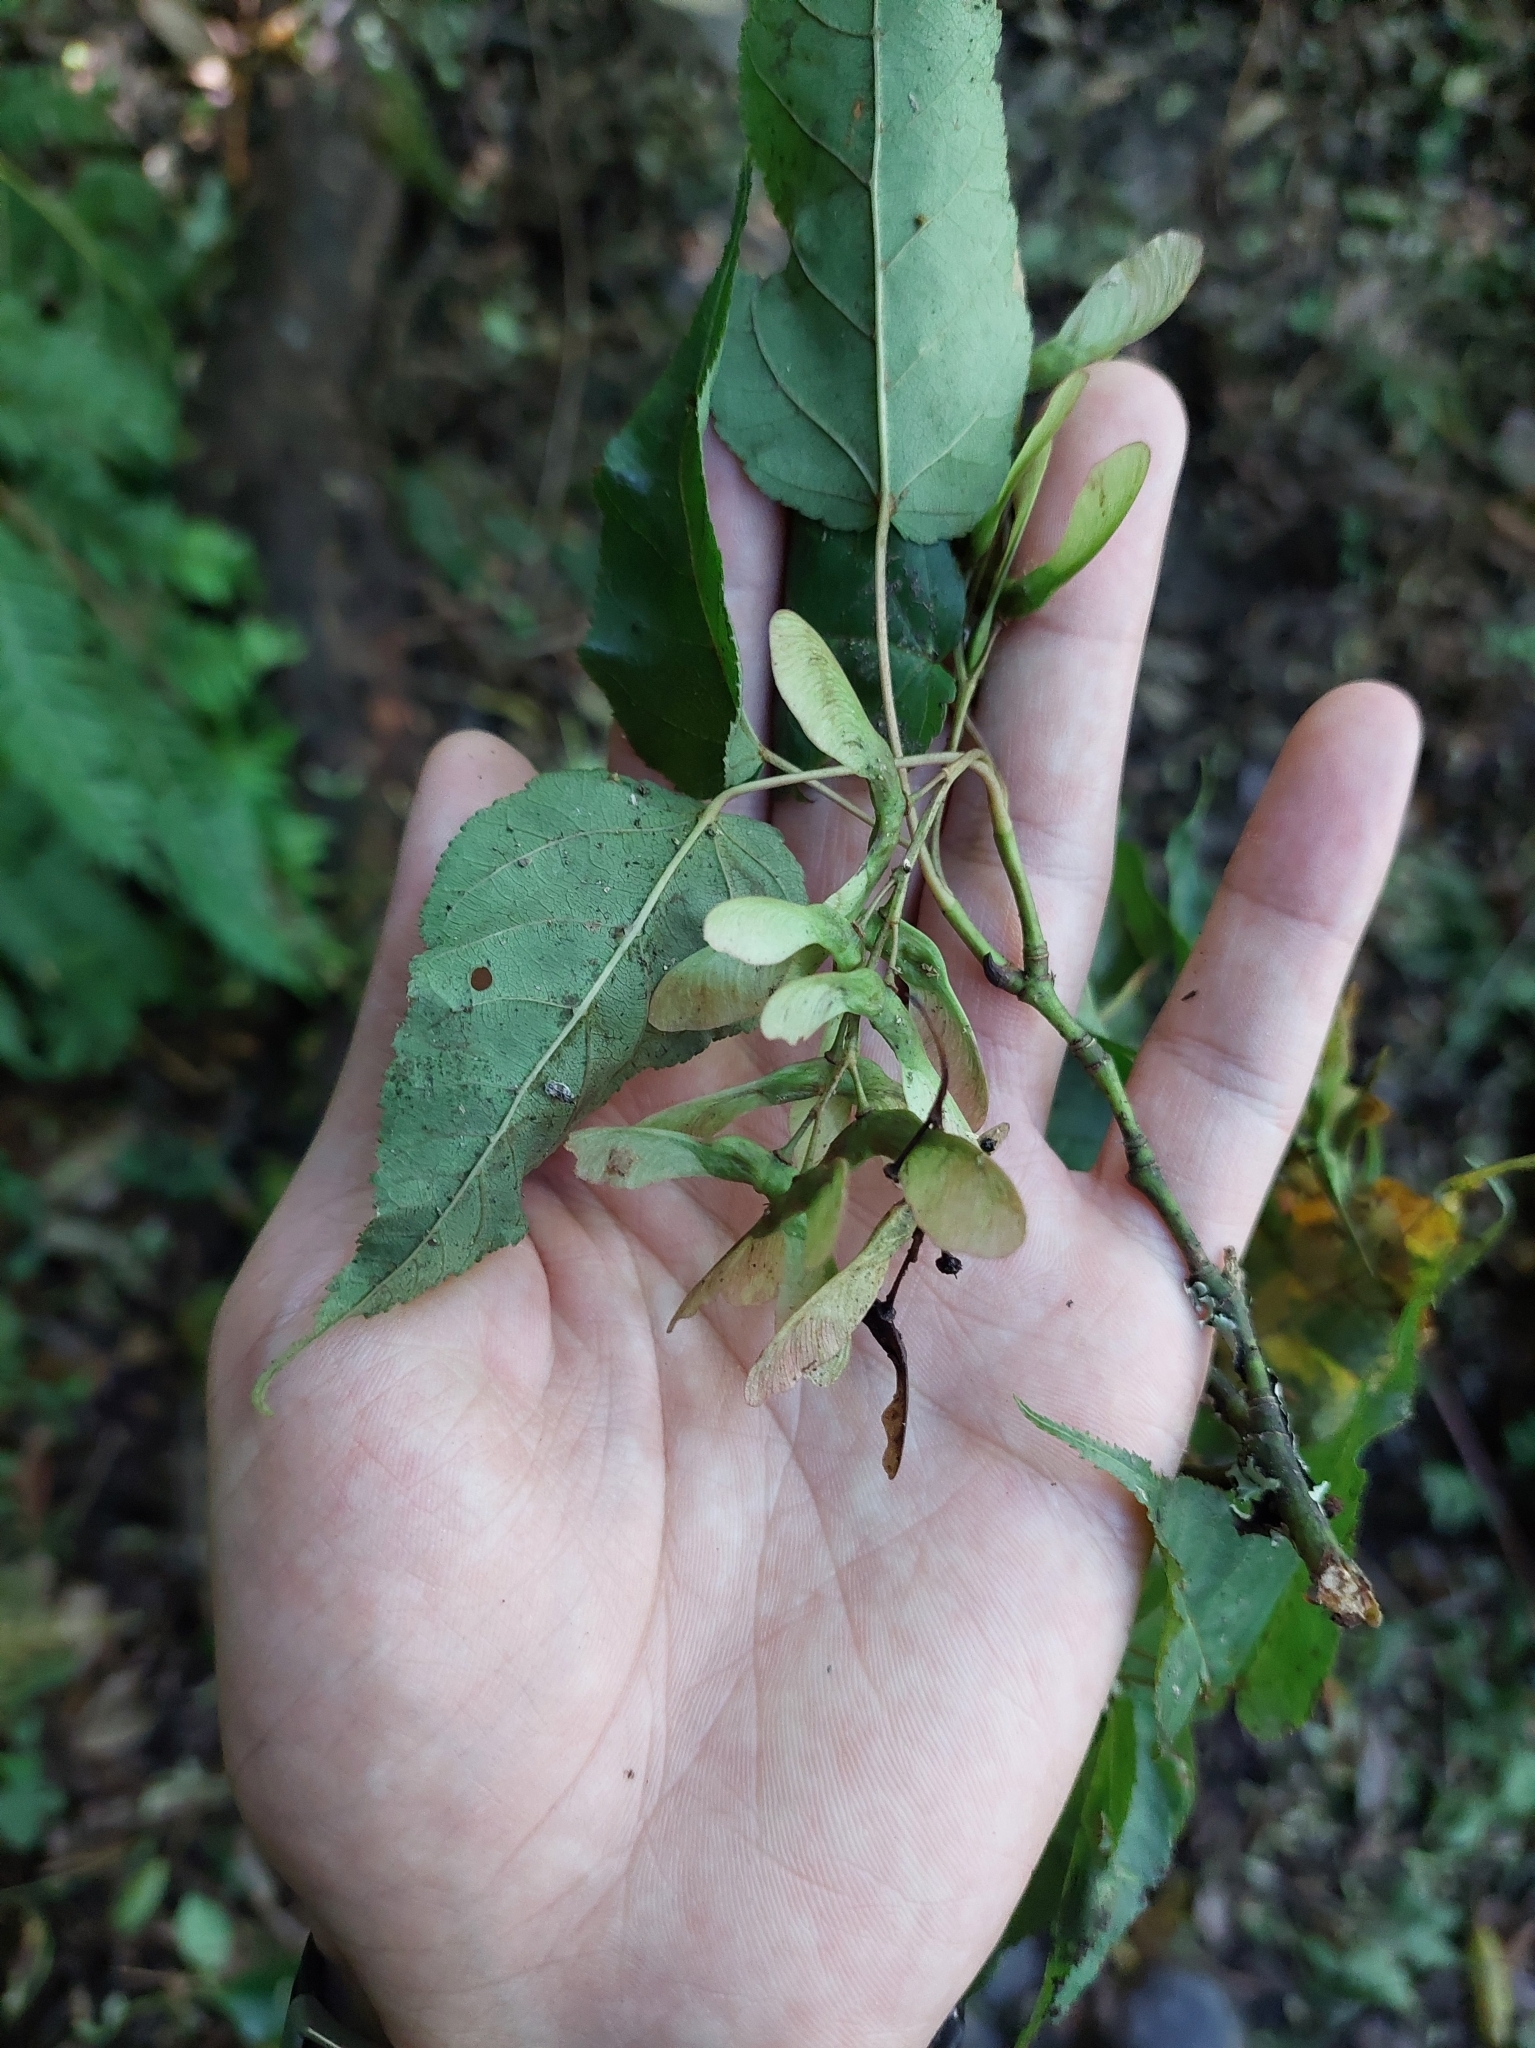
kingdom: Plantae
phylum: Tracheophyta
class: Magnoliopsida
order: Sapindales
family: Sapindaceae
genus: Acer
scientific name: Acer caudatifolium
